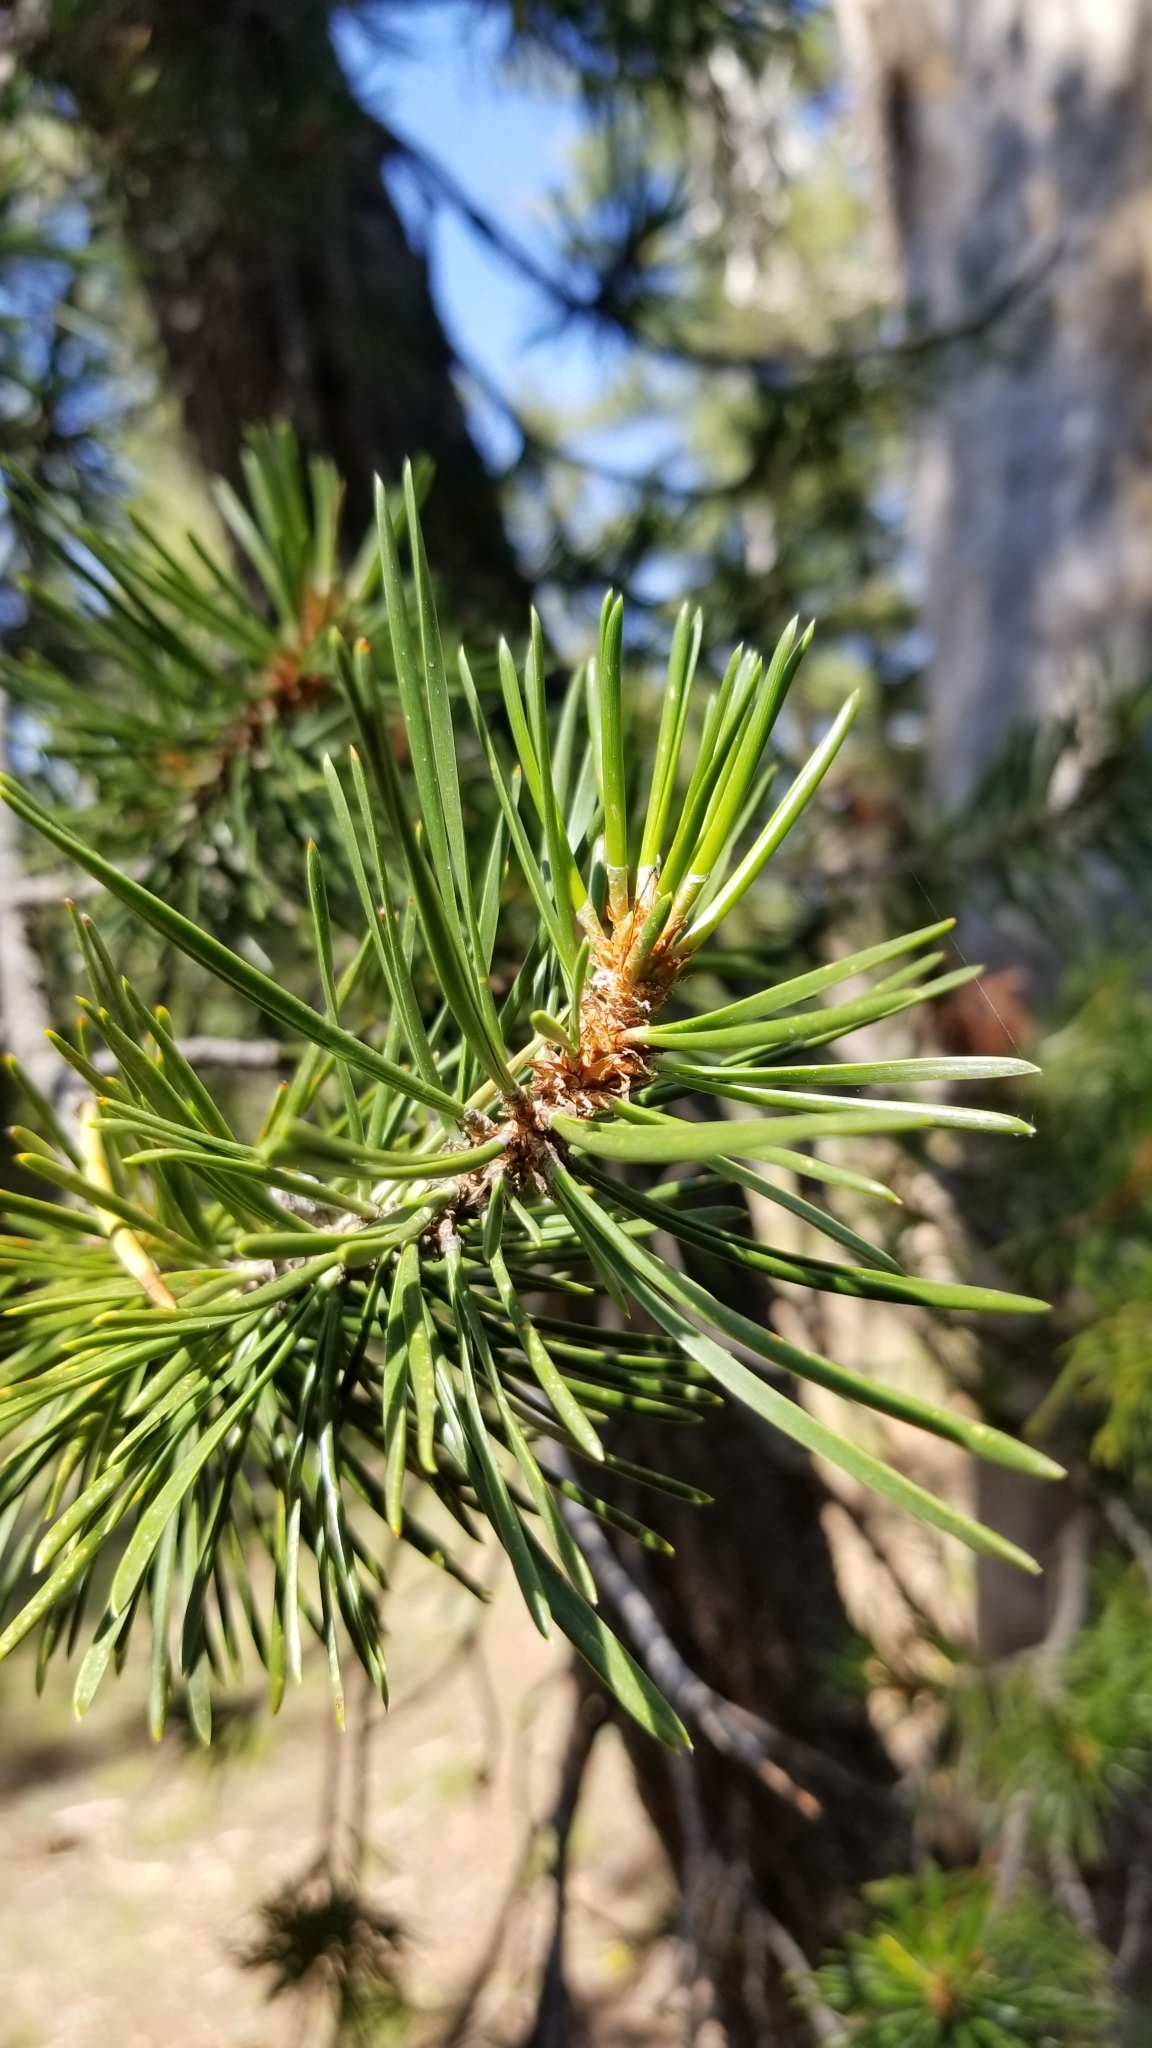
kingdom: Plantae
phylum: Tracheophyta
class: Pinopsida
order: Pinales
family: Pinaceae
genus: Pinus
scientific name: Pinus contorta
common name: Lodgepole pine
